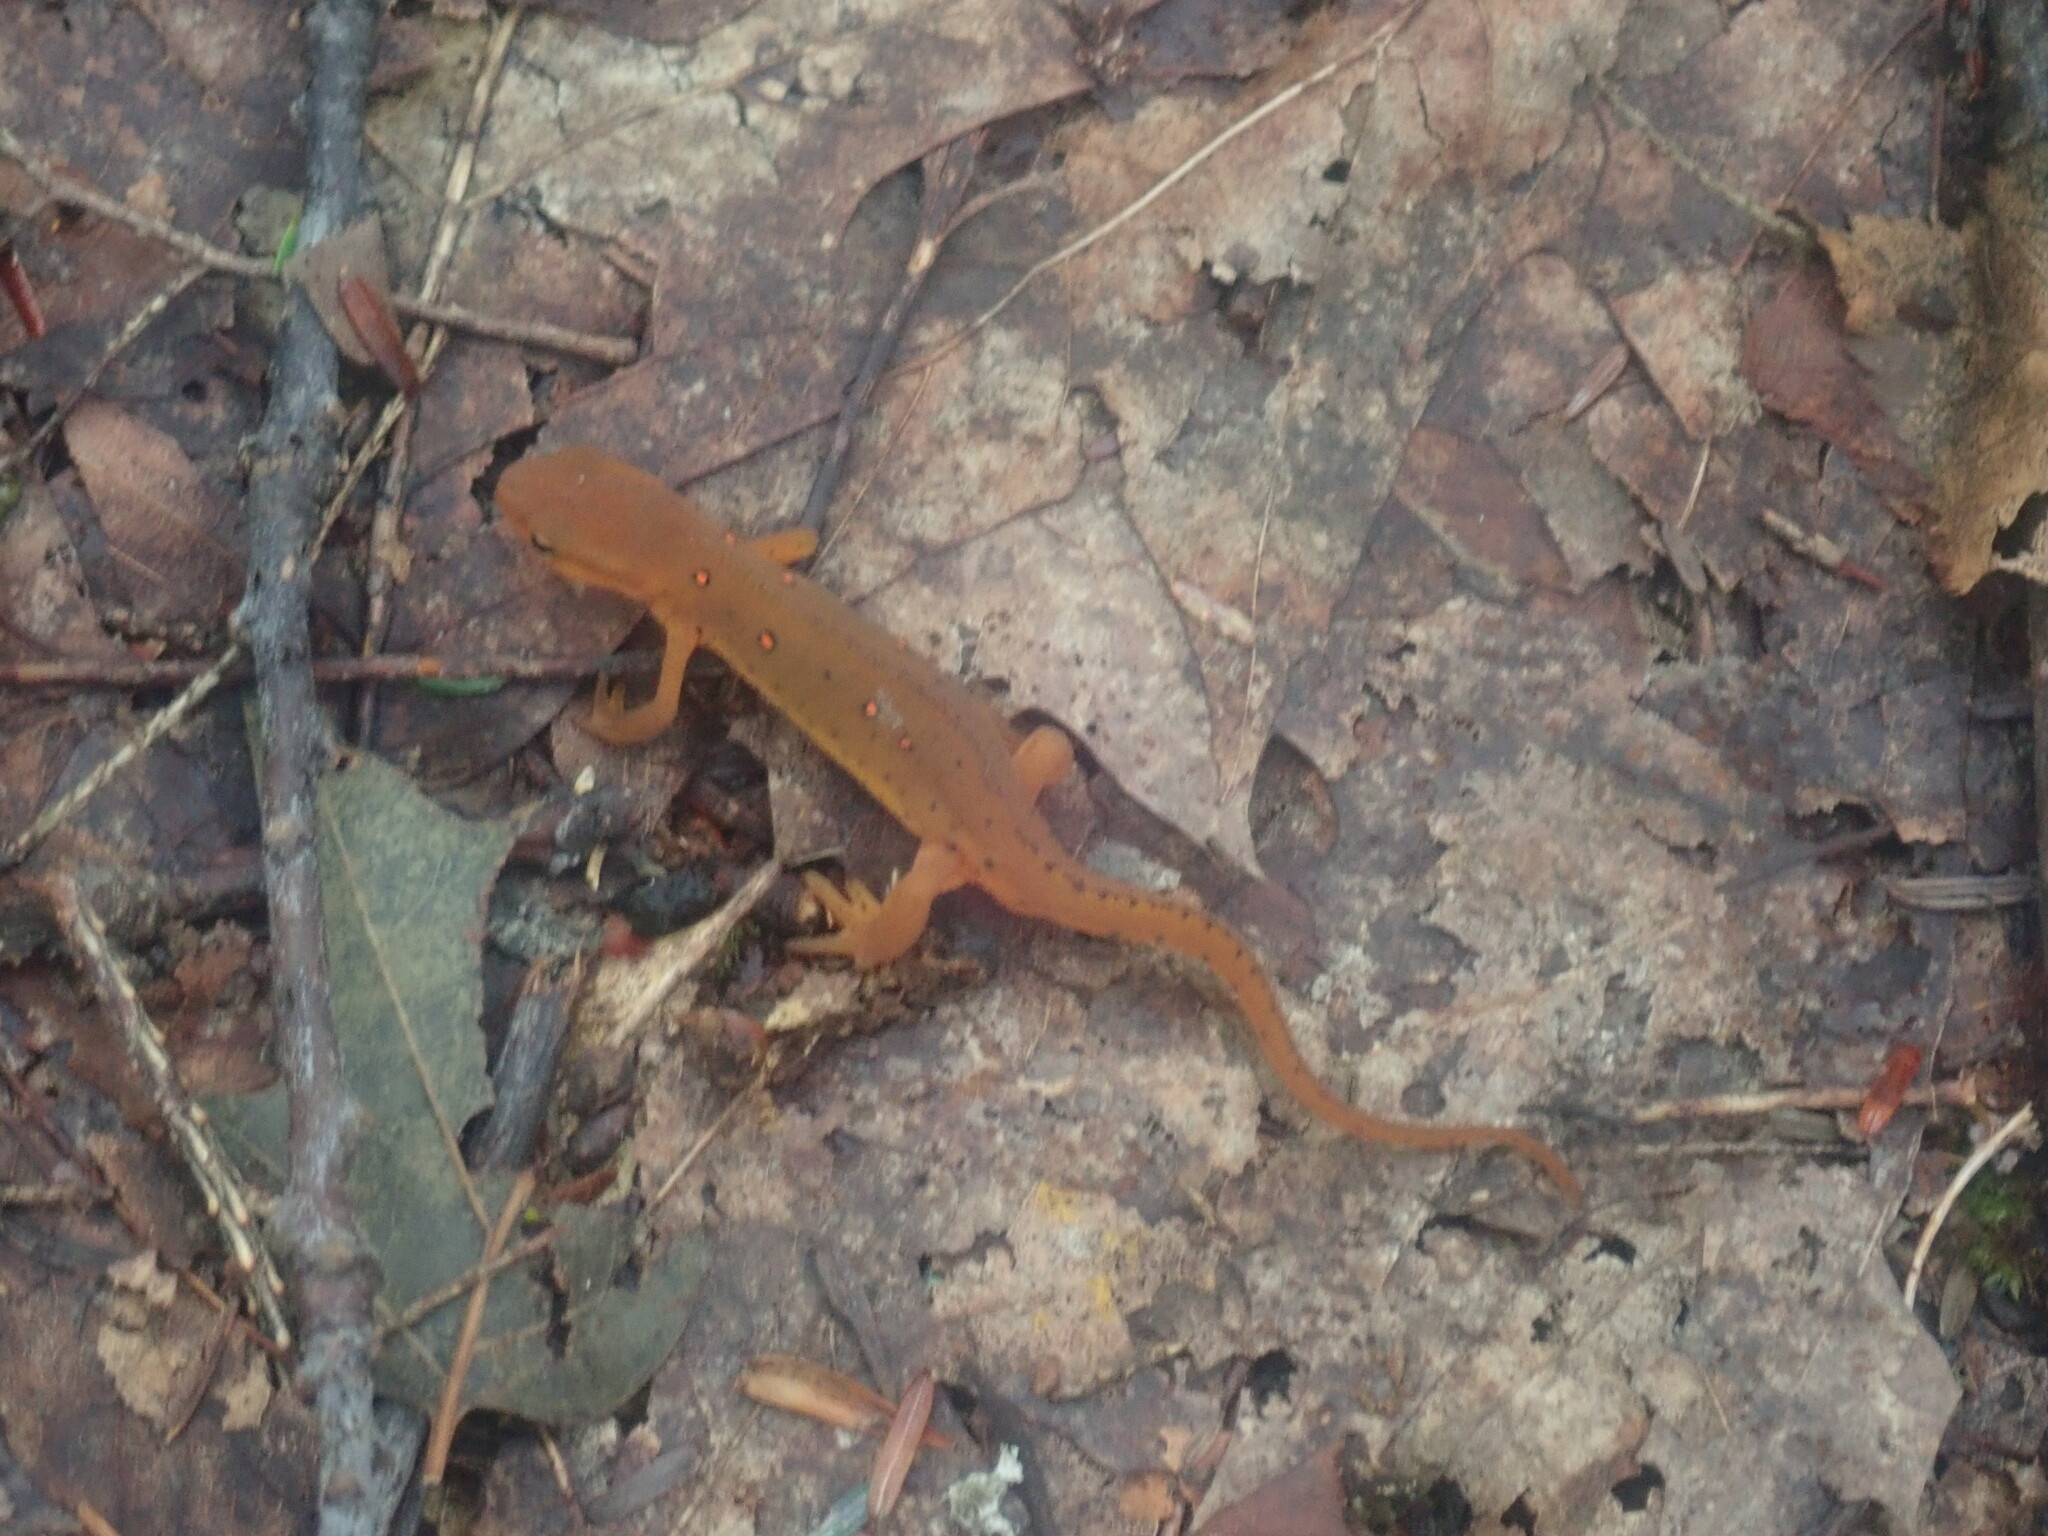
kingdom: Animalia
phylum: Chordata
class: Amphibia
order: Caudata
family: Salamandridae
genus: Notophthalmus
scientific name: Notophthalmus viridescens
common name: Eastern newt
